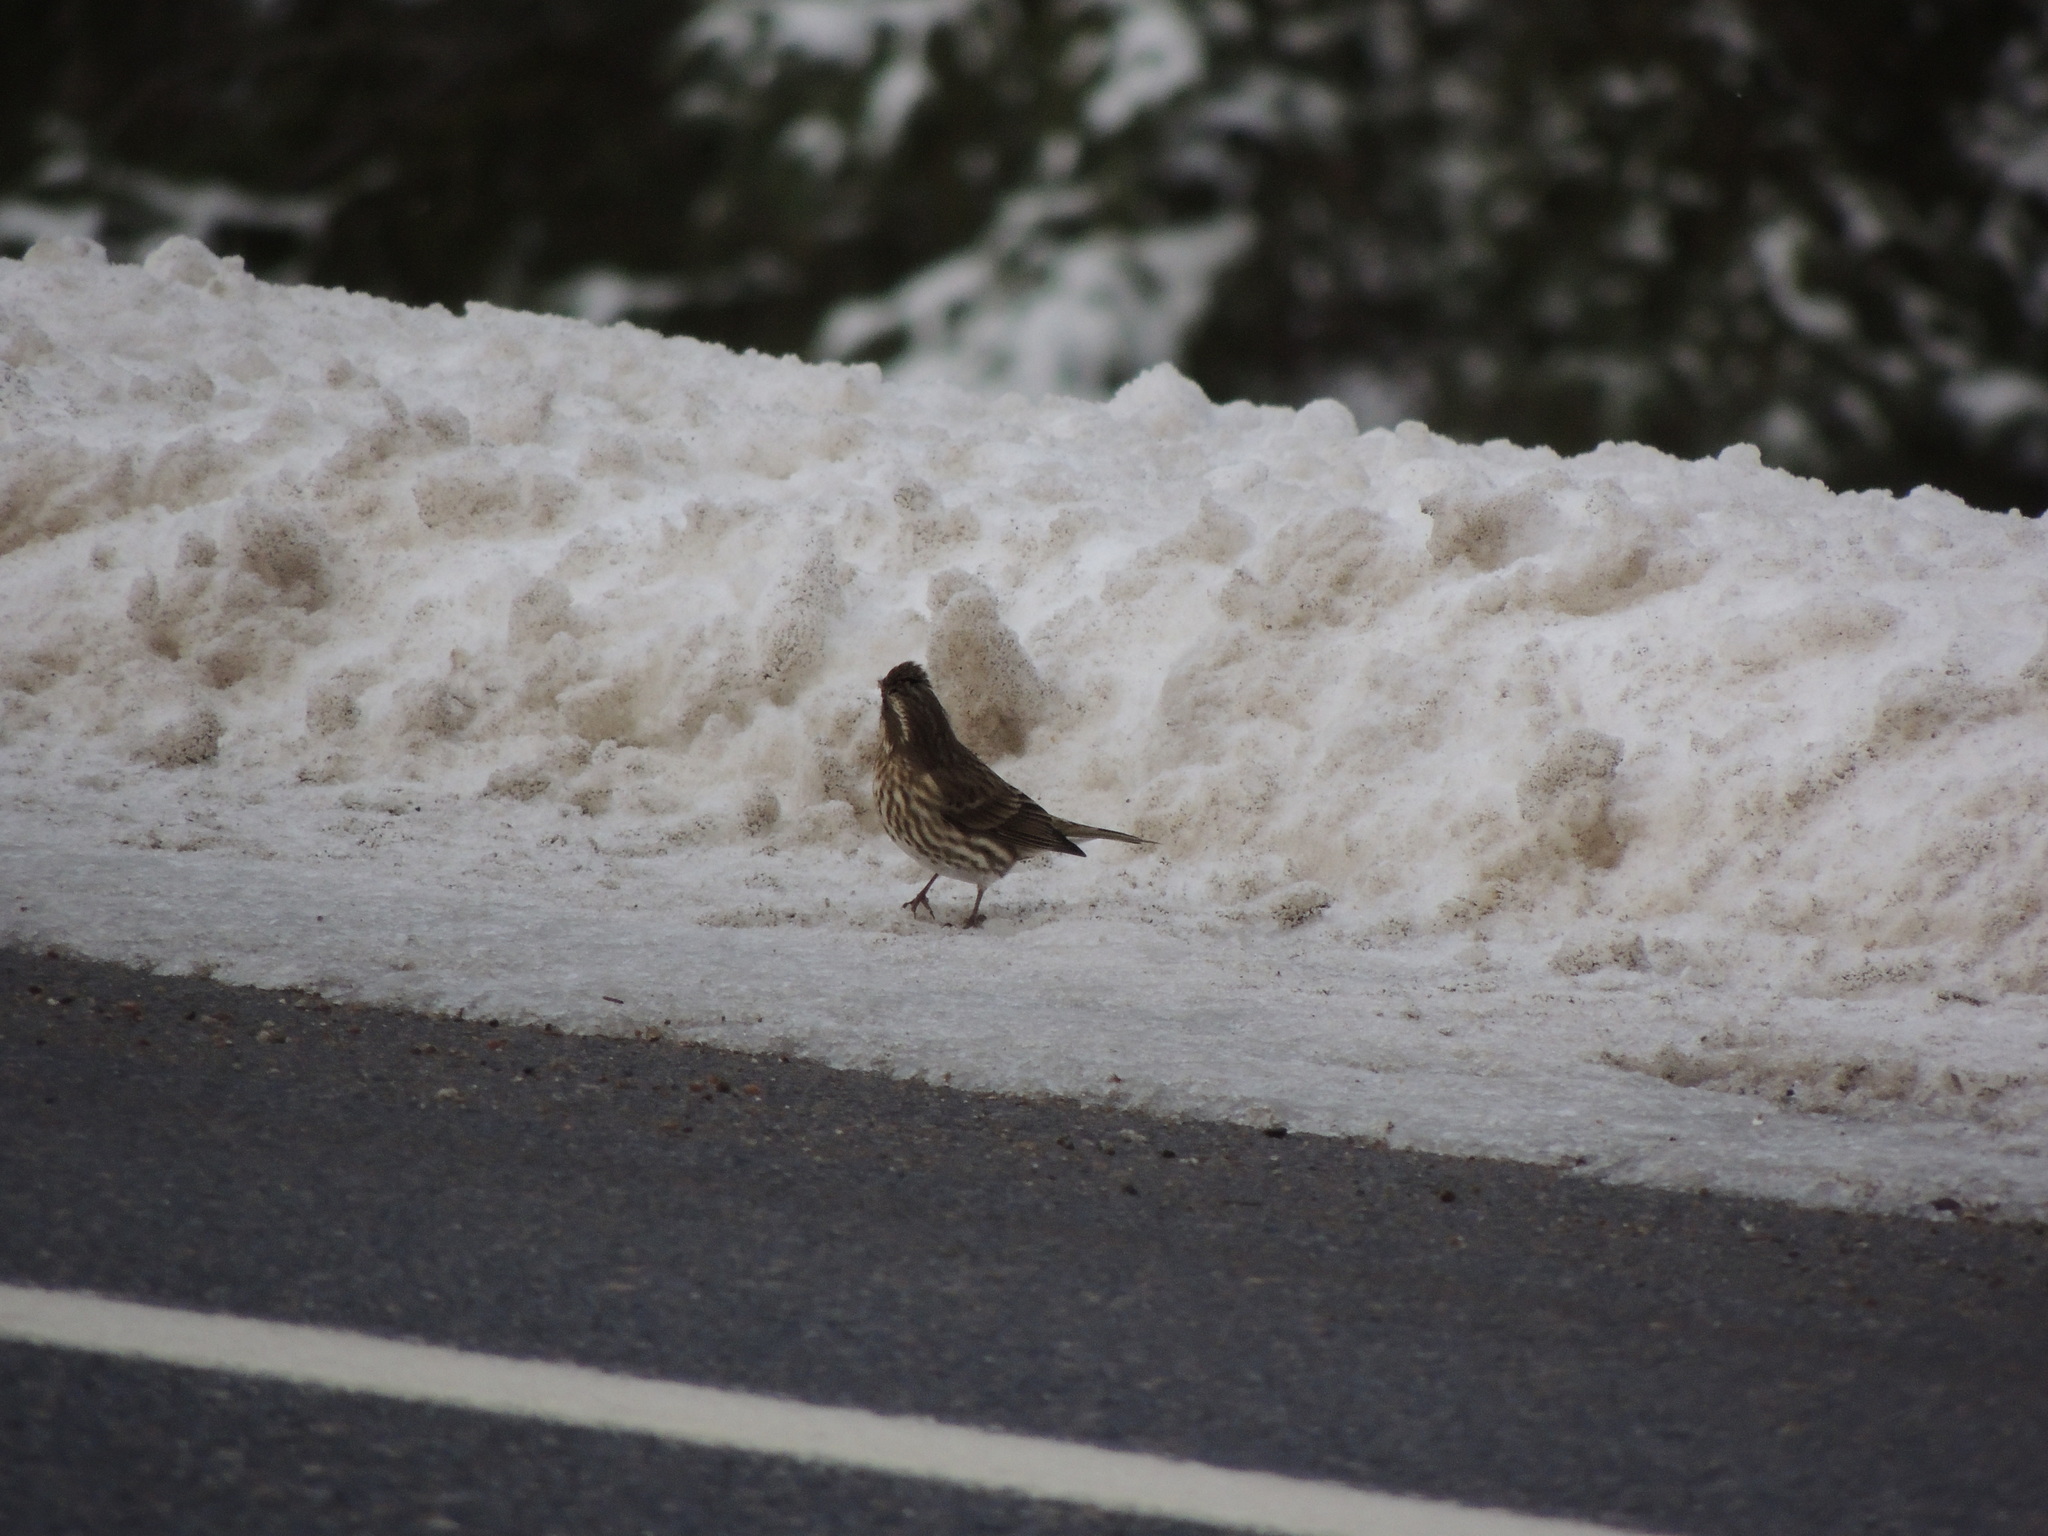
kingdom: Animalia
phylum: Chordata
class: Aves
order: Passeriformes
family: Fringillidae
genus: Haemorhous
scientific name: Haemorhous purpureus
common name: Purple finch
